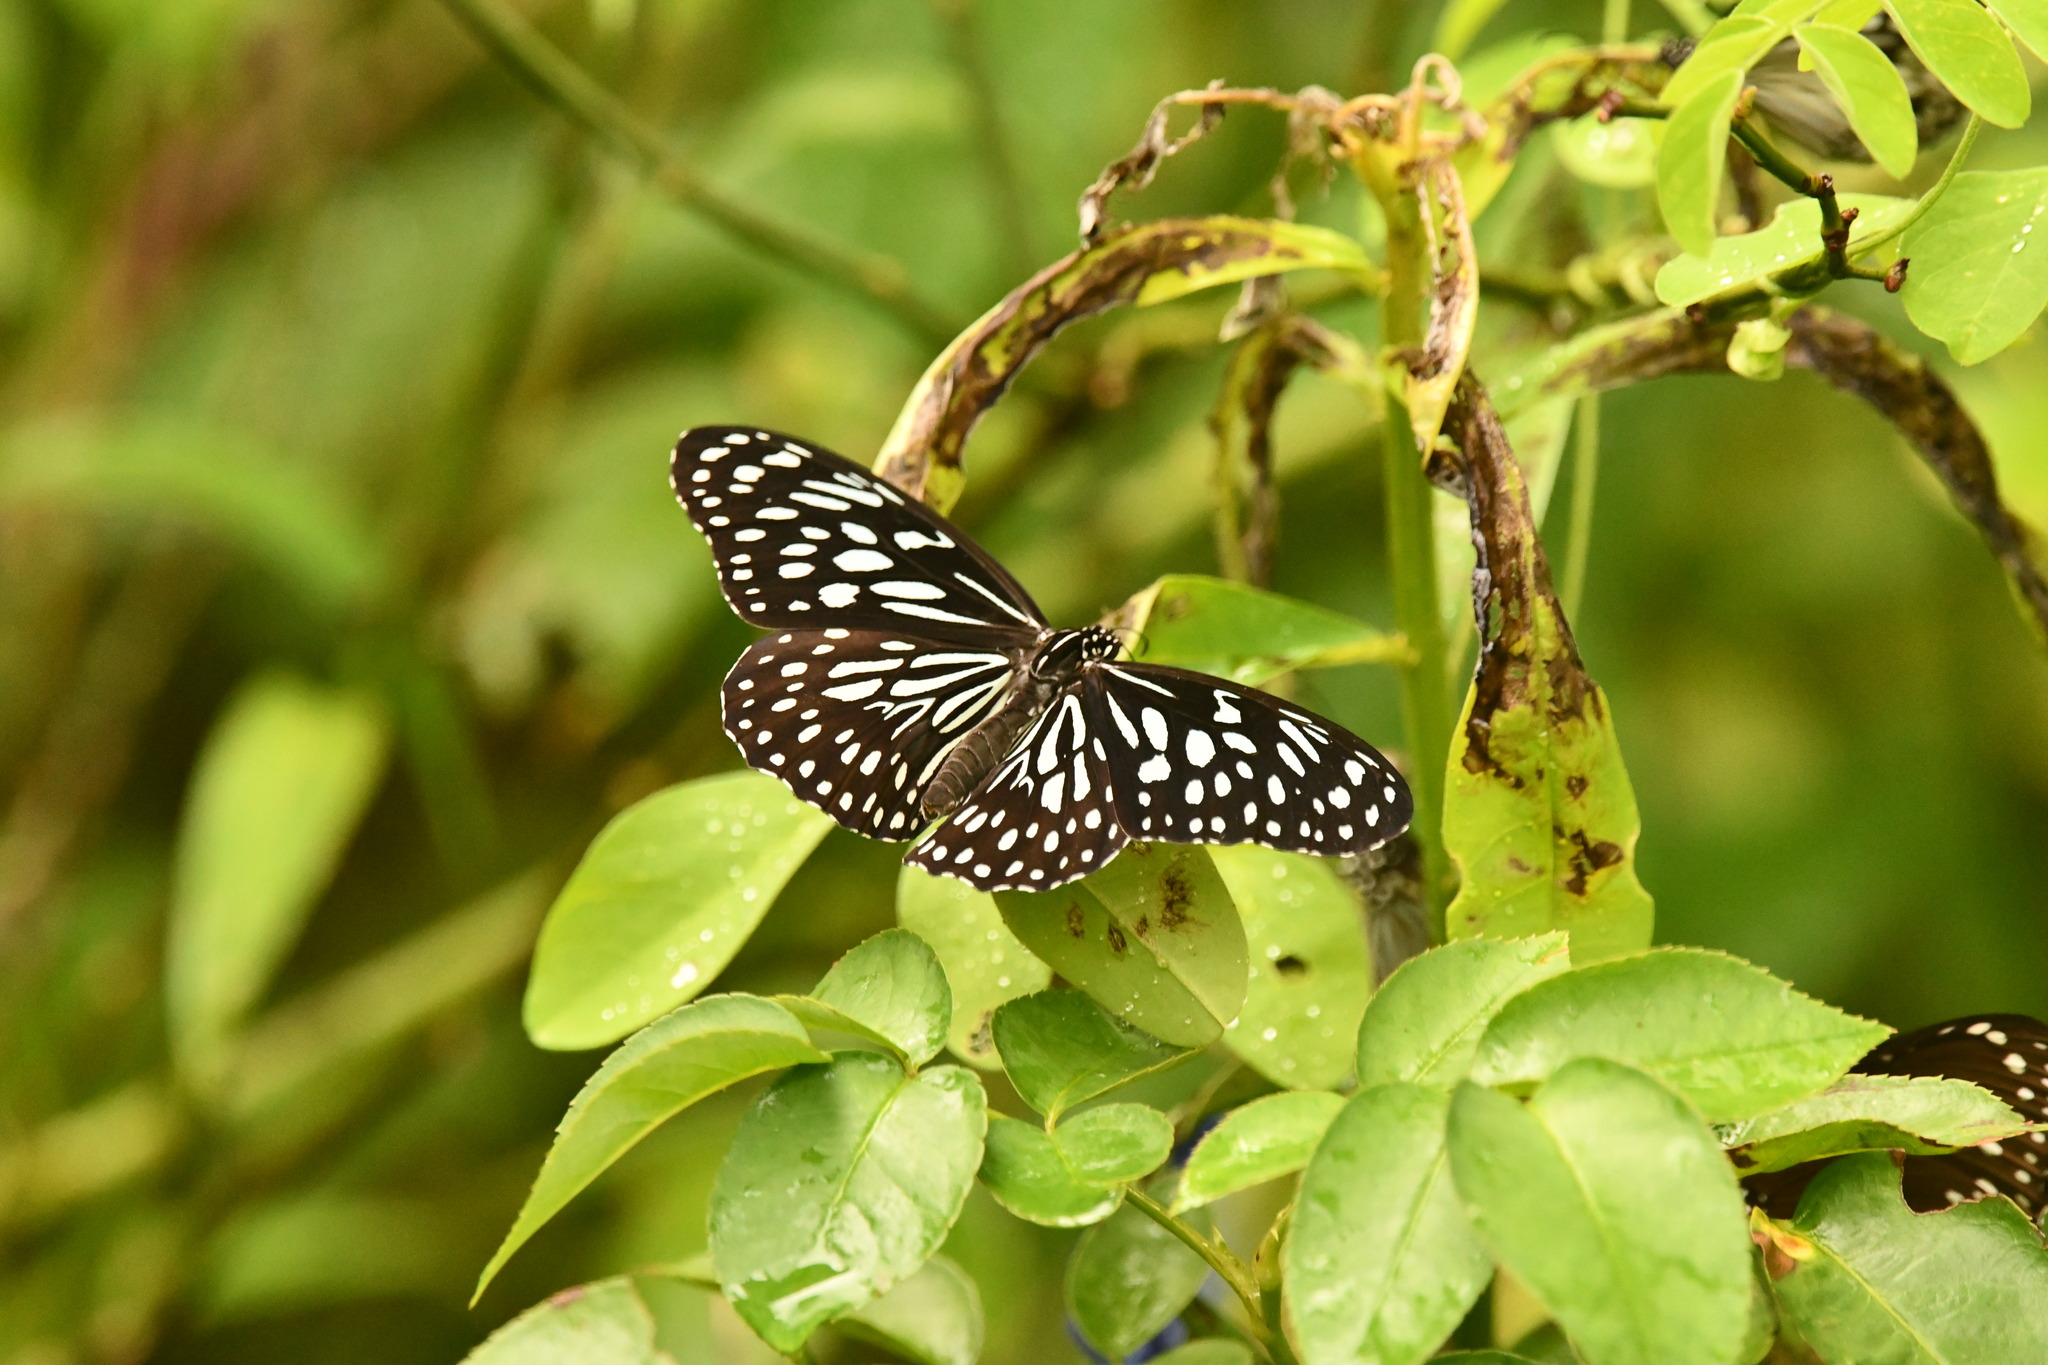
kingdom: Animalia
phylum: Arthropoda
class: Insecta
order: Lepidoptera
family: Nymphalidae
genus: Tirumala
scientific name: Tirumala septentrionis
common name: Dark blue tiger butterfly
